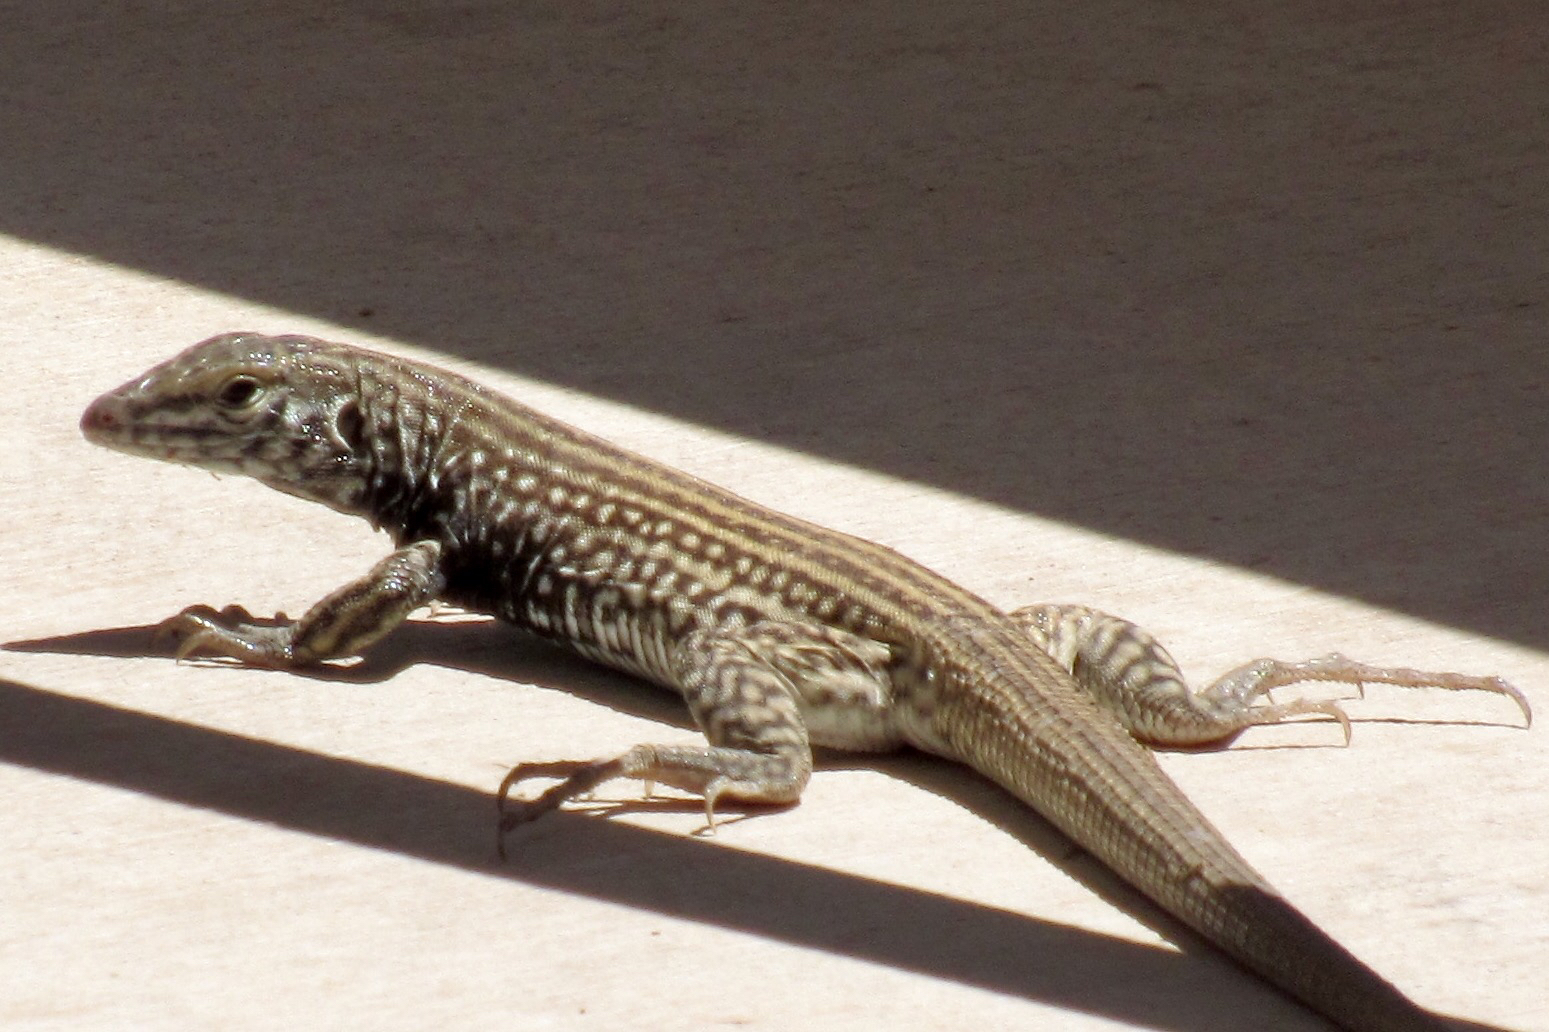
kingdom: Animalia
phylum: Chordata
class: Squamata
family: Teiidae
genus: Aspidoscelis
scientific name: Aspidoscelis tigris
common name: Tiger whiptail
